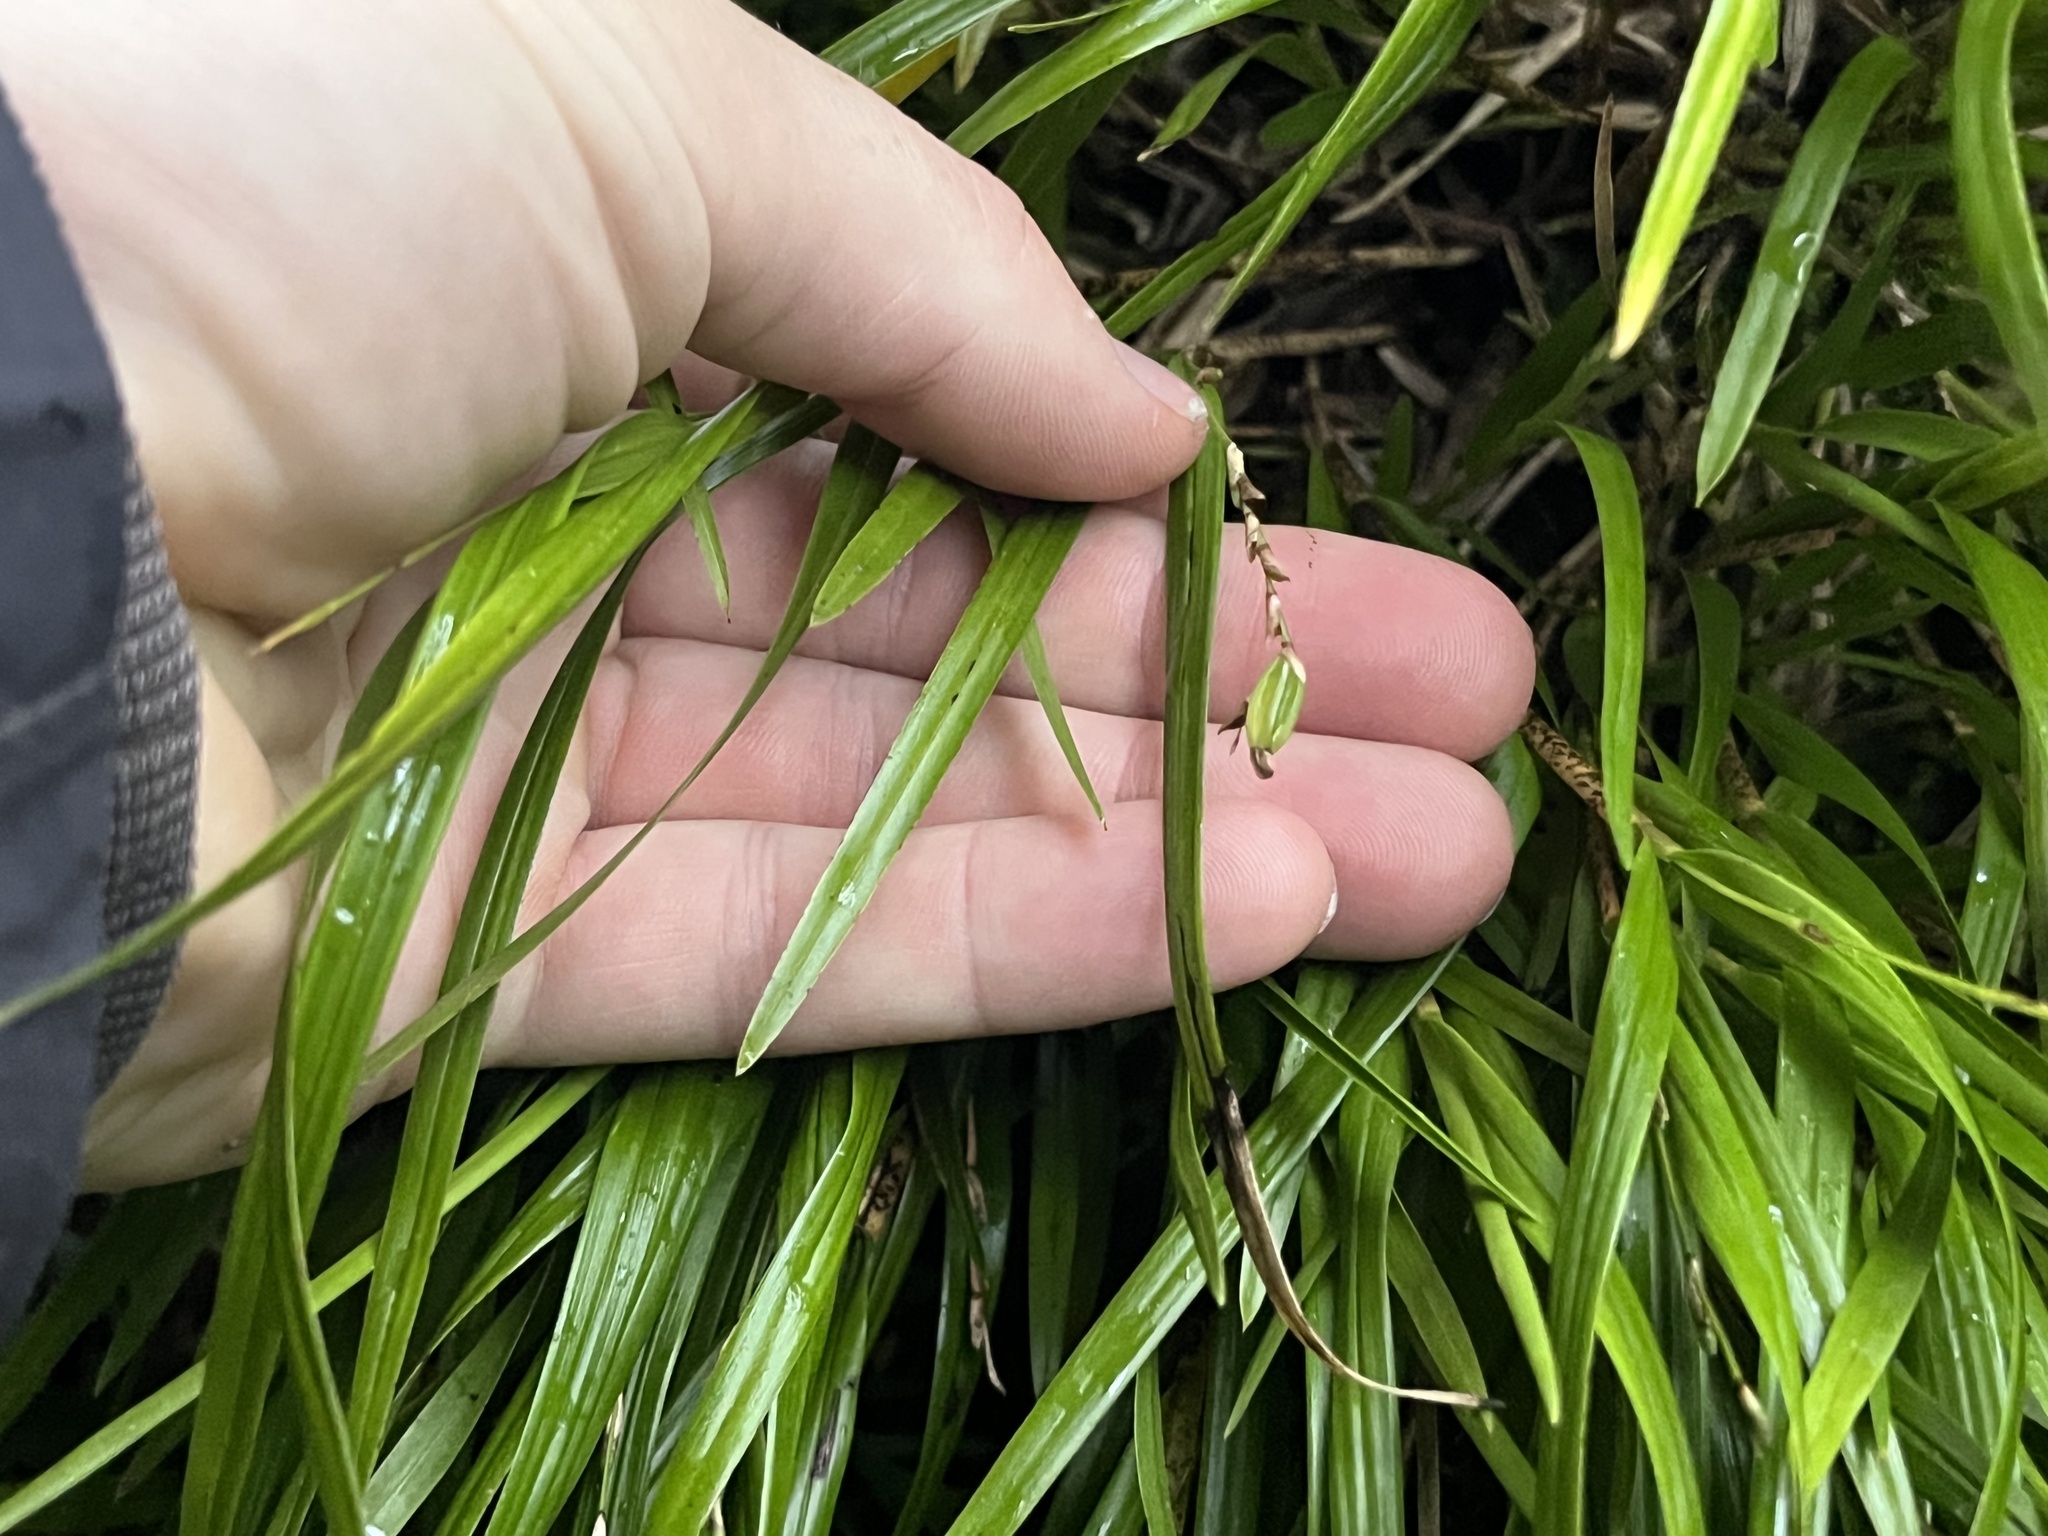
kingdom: Plantae
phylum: Tracheophyta
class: Liliopsida
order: Asparagales
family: Orchidaceae
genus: Earina
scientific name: Earina aestivalis
